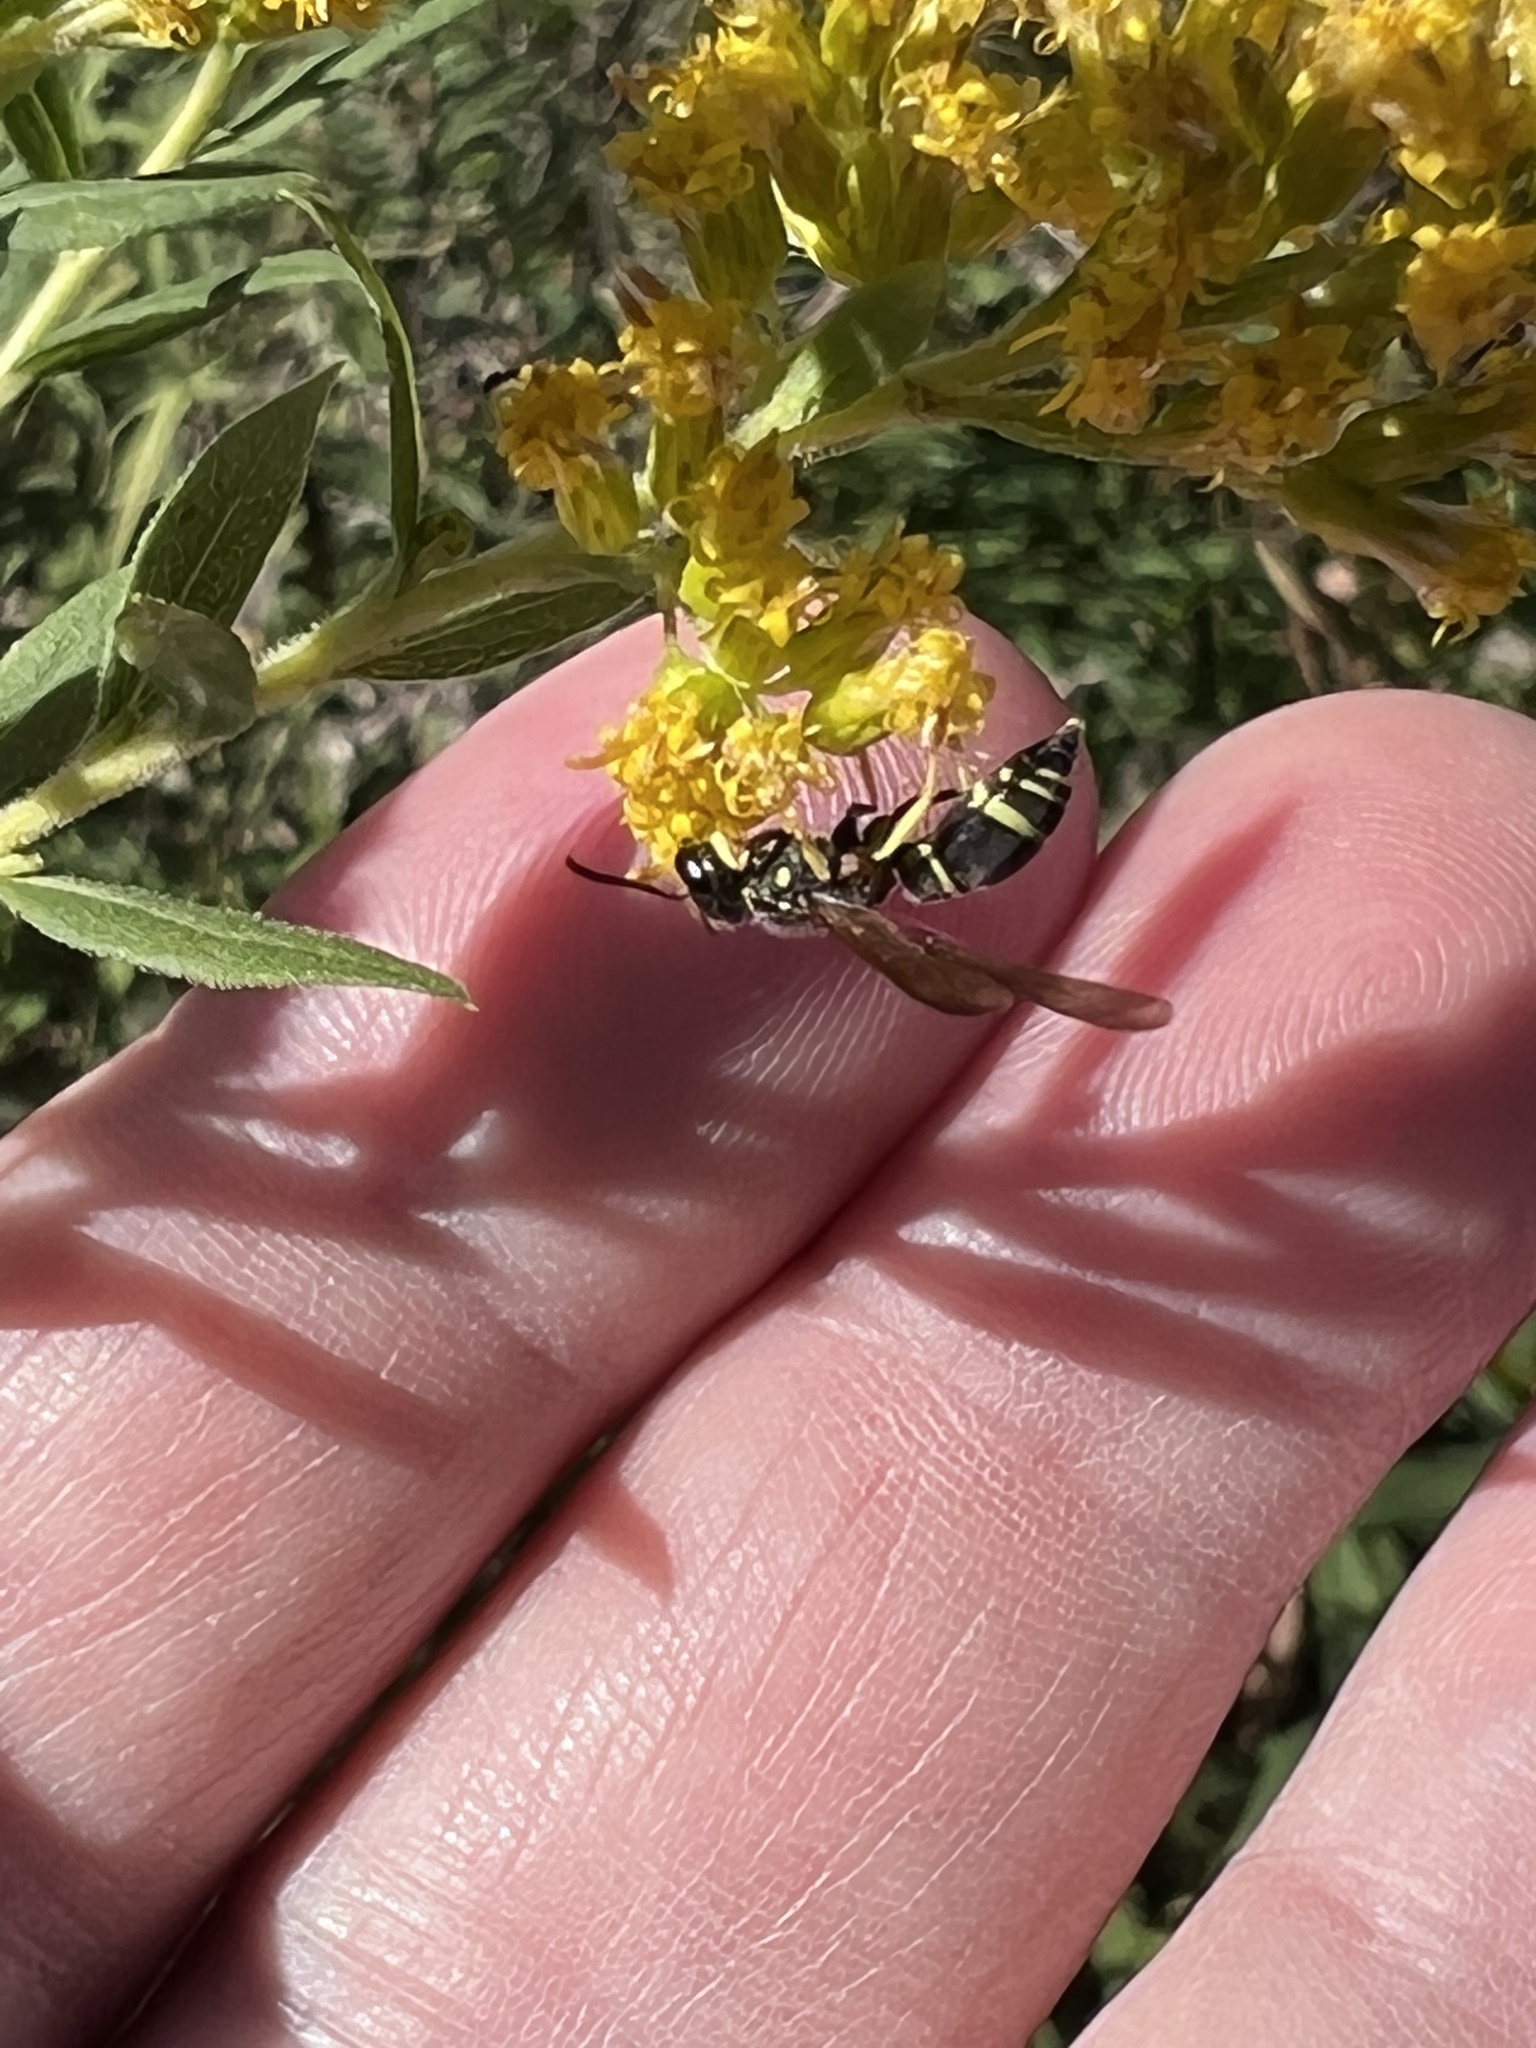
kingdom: Animalia
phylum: Arthropoda
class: Insecta
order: Hymenoptera
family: Vespidae
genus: Ancistrocerus
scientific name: Ancistrocerus
